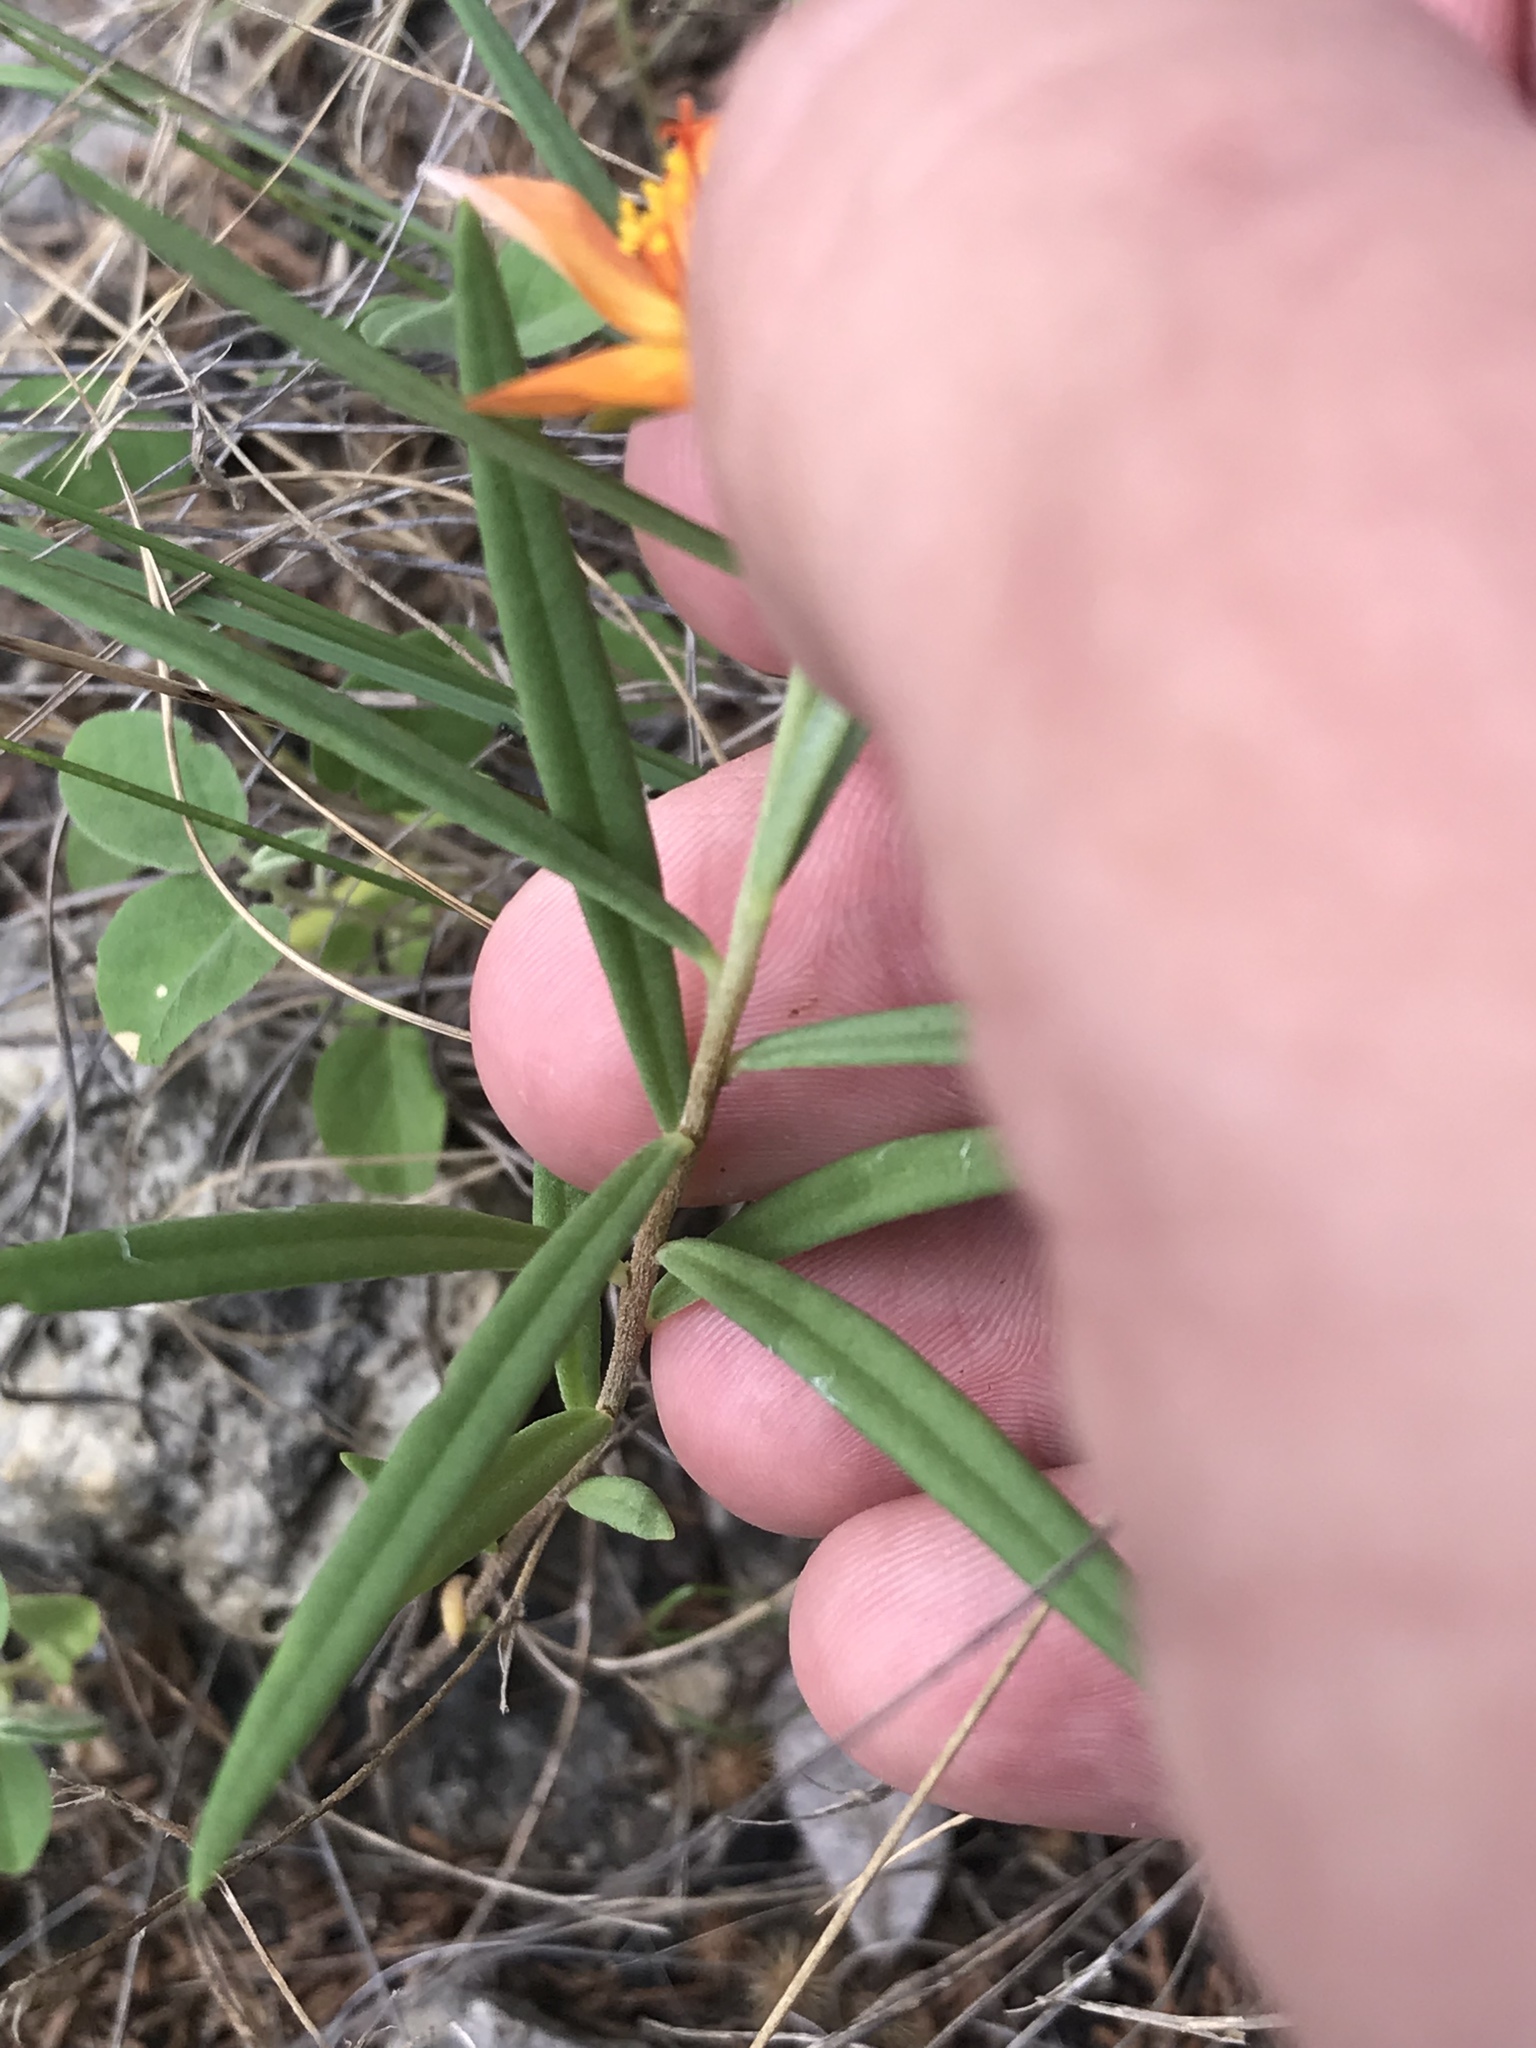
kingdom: Plantae
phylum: Tracheophyta
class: Magnoliopsida
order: Caryophyllales
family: Montiaceae
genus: Phemeranthus
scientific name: Phemeranthus aurantiacus
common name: Orange fameflower
